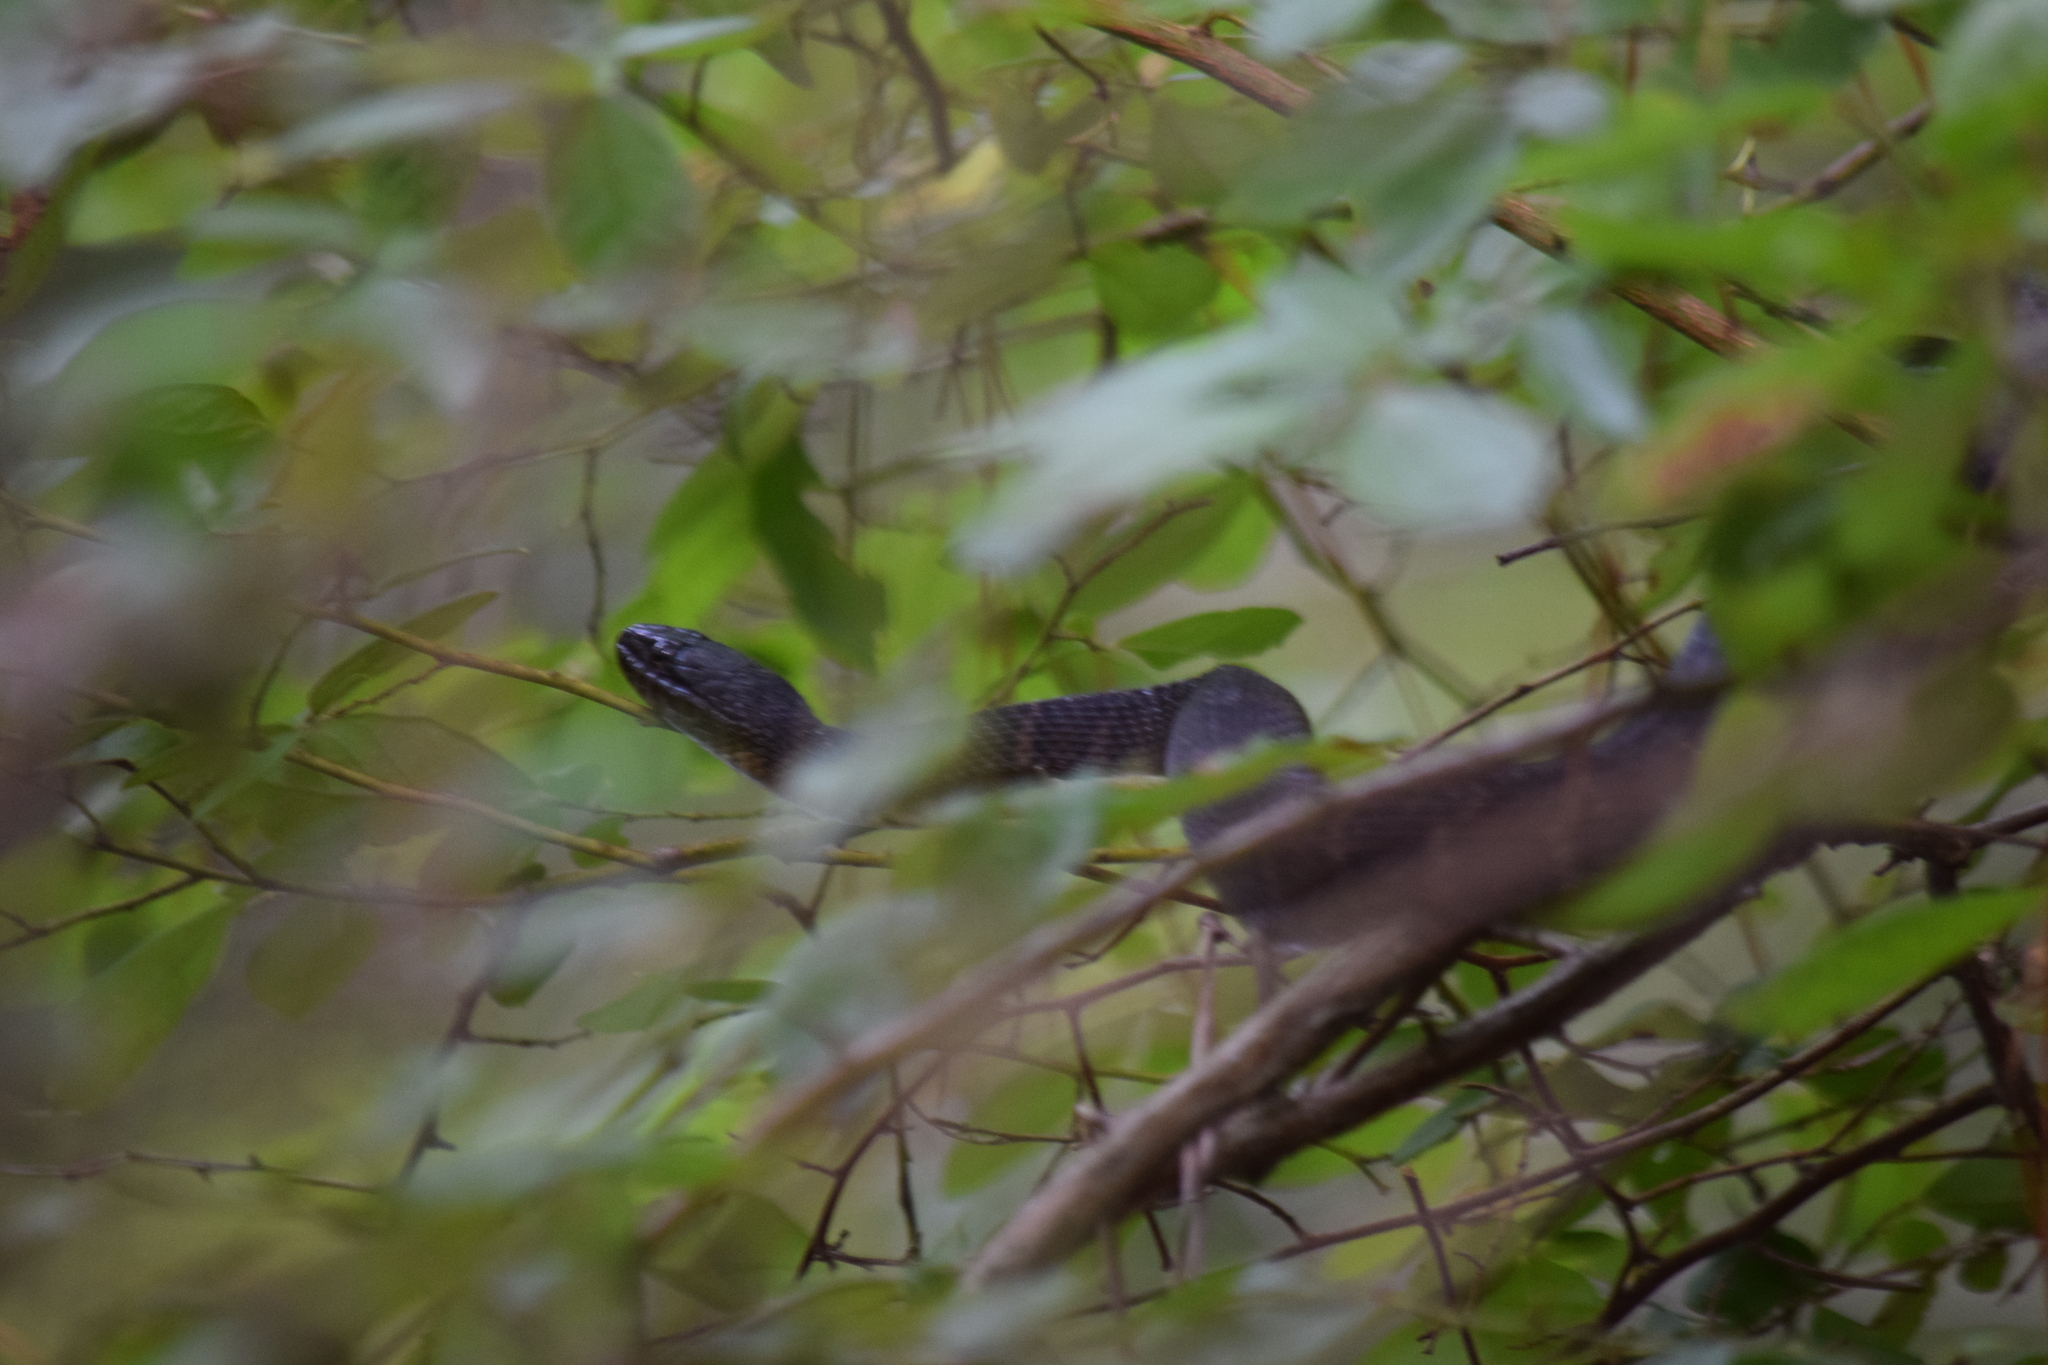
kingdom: Animalia
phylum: Chordata
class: Squamata
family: Colubridae
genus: Nerodia
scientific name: Nerodia sipedon
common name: Northern water snake
